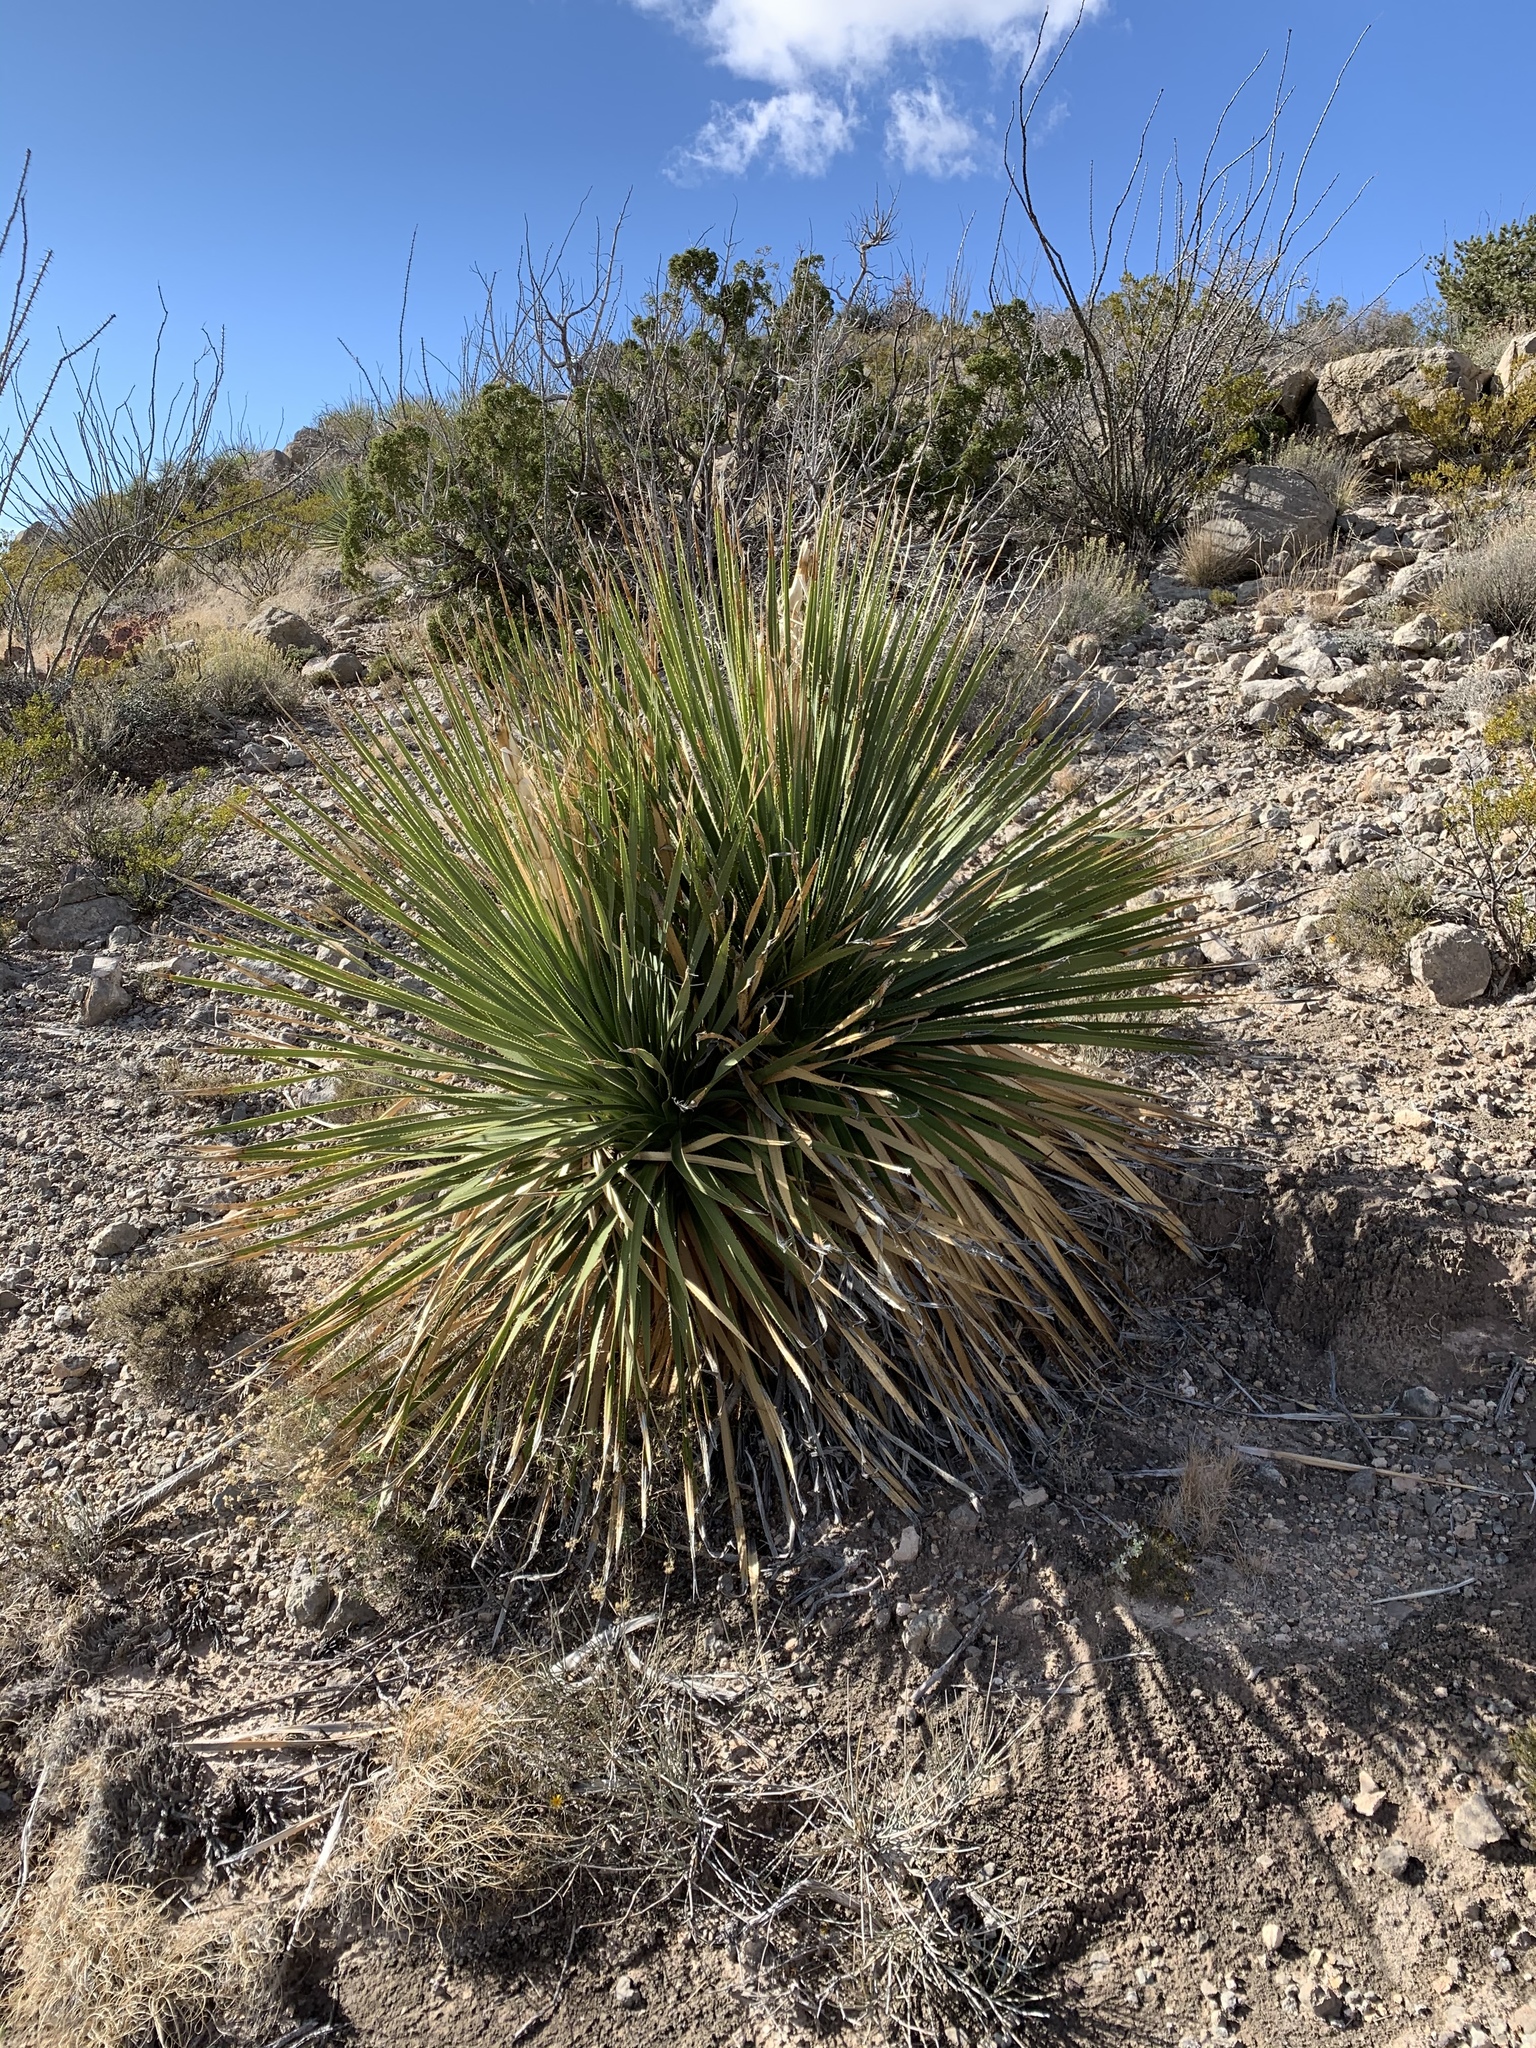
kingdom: Plantae
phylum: Tracheophyta
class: Liliopsida
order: Asparagales
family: Asparagaceae
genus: Dasylirion
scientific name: Dasylirion wheeleri
